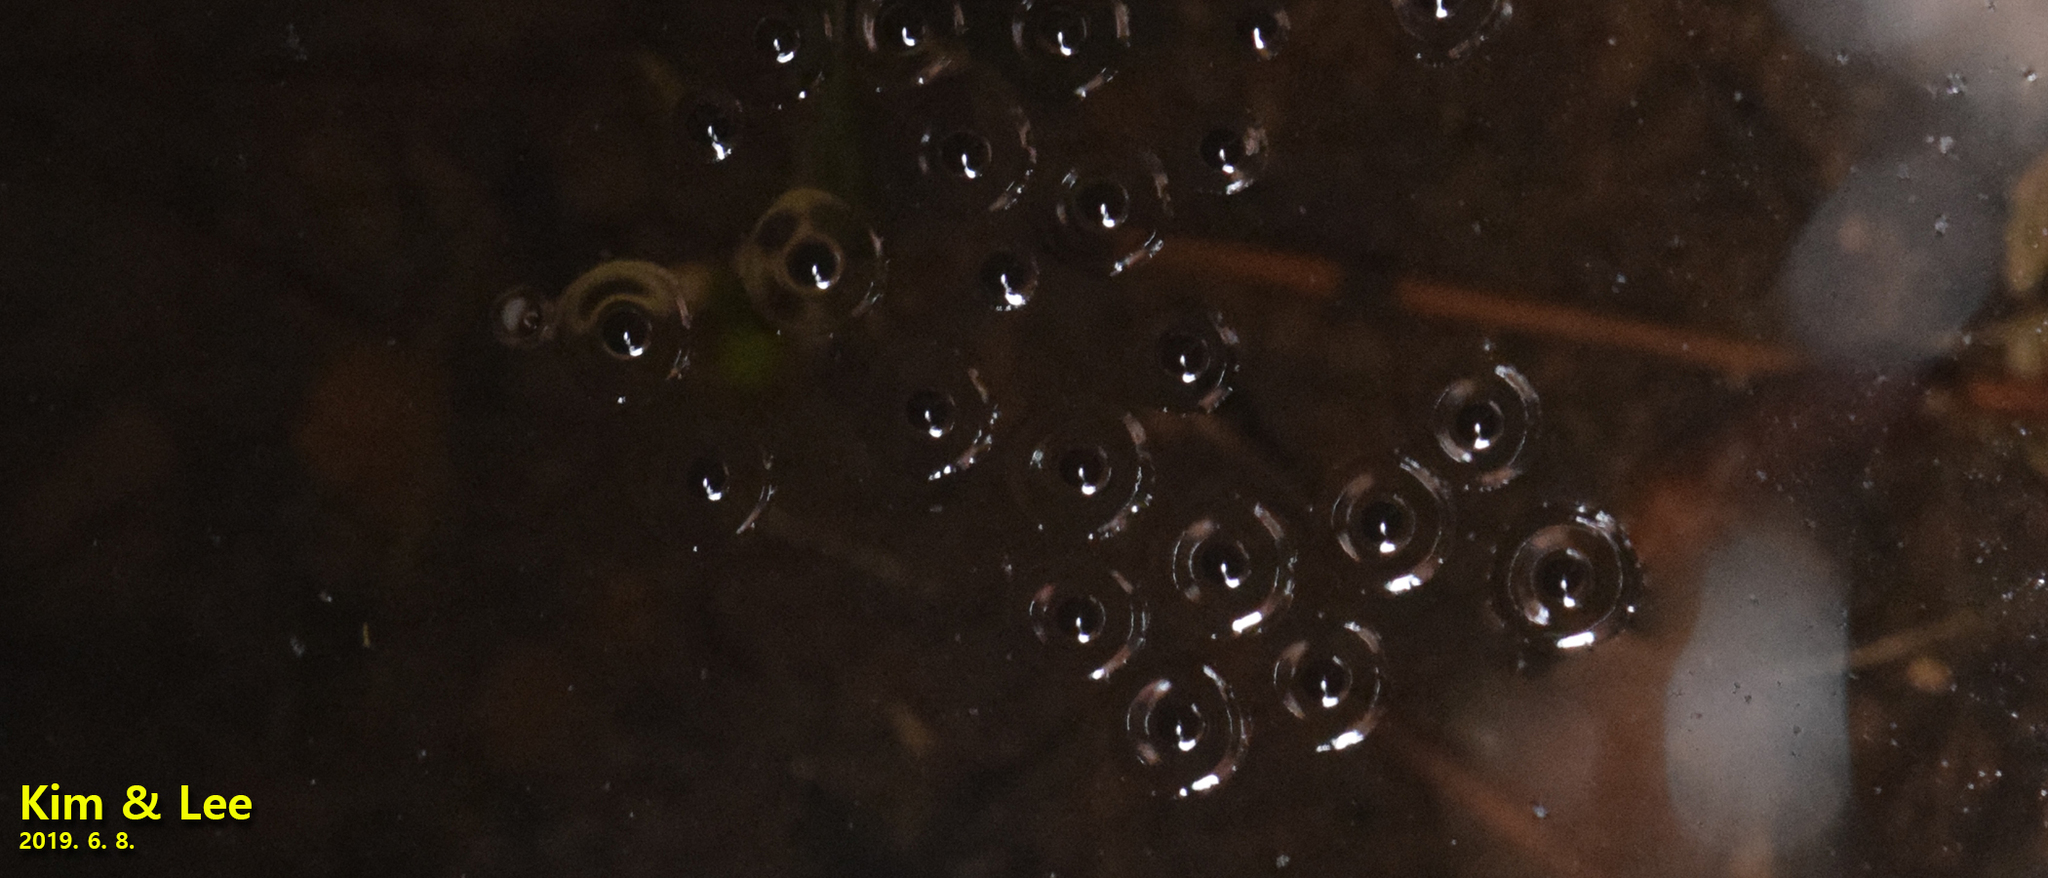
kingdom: Animalia
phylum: Chordata
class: Amphibia
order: Anura
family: Microhylidae
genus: Kaloula
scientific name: Kaloula borealis
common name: Boreal digging frog
